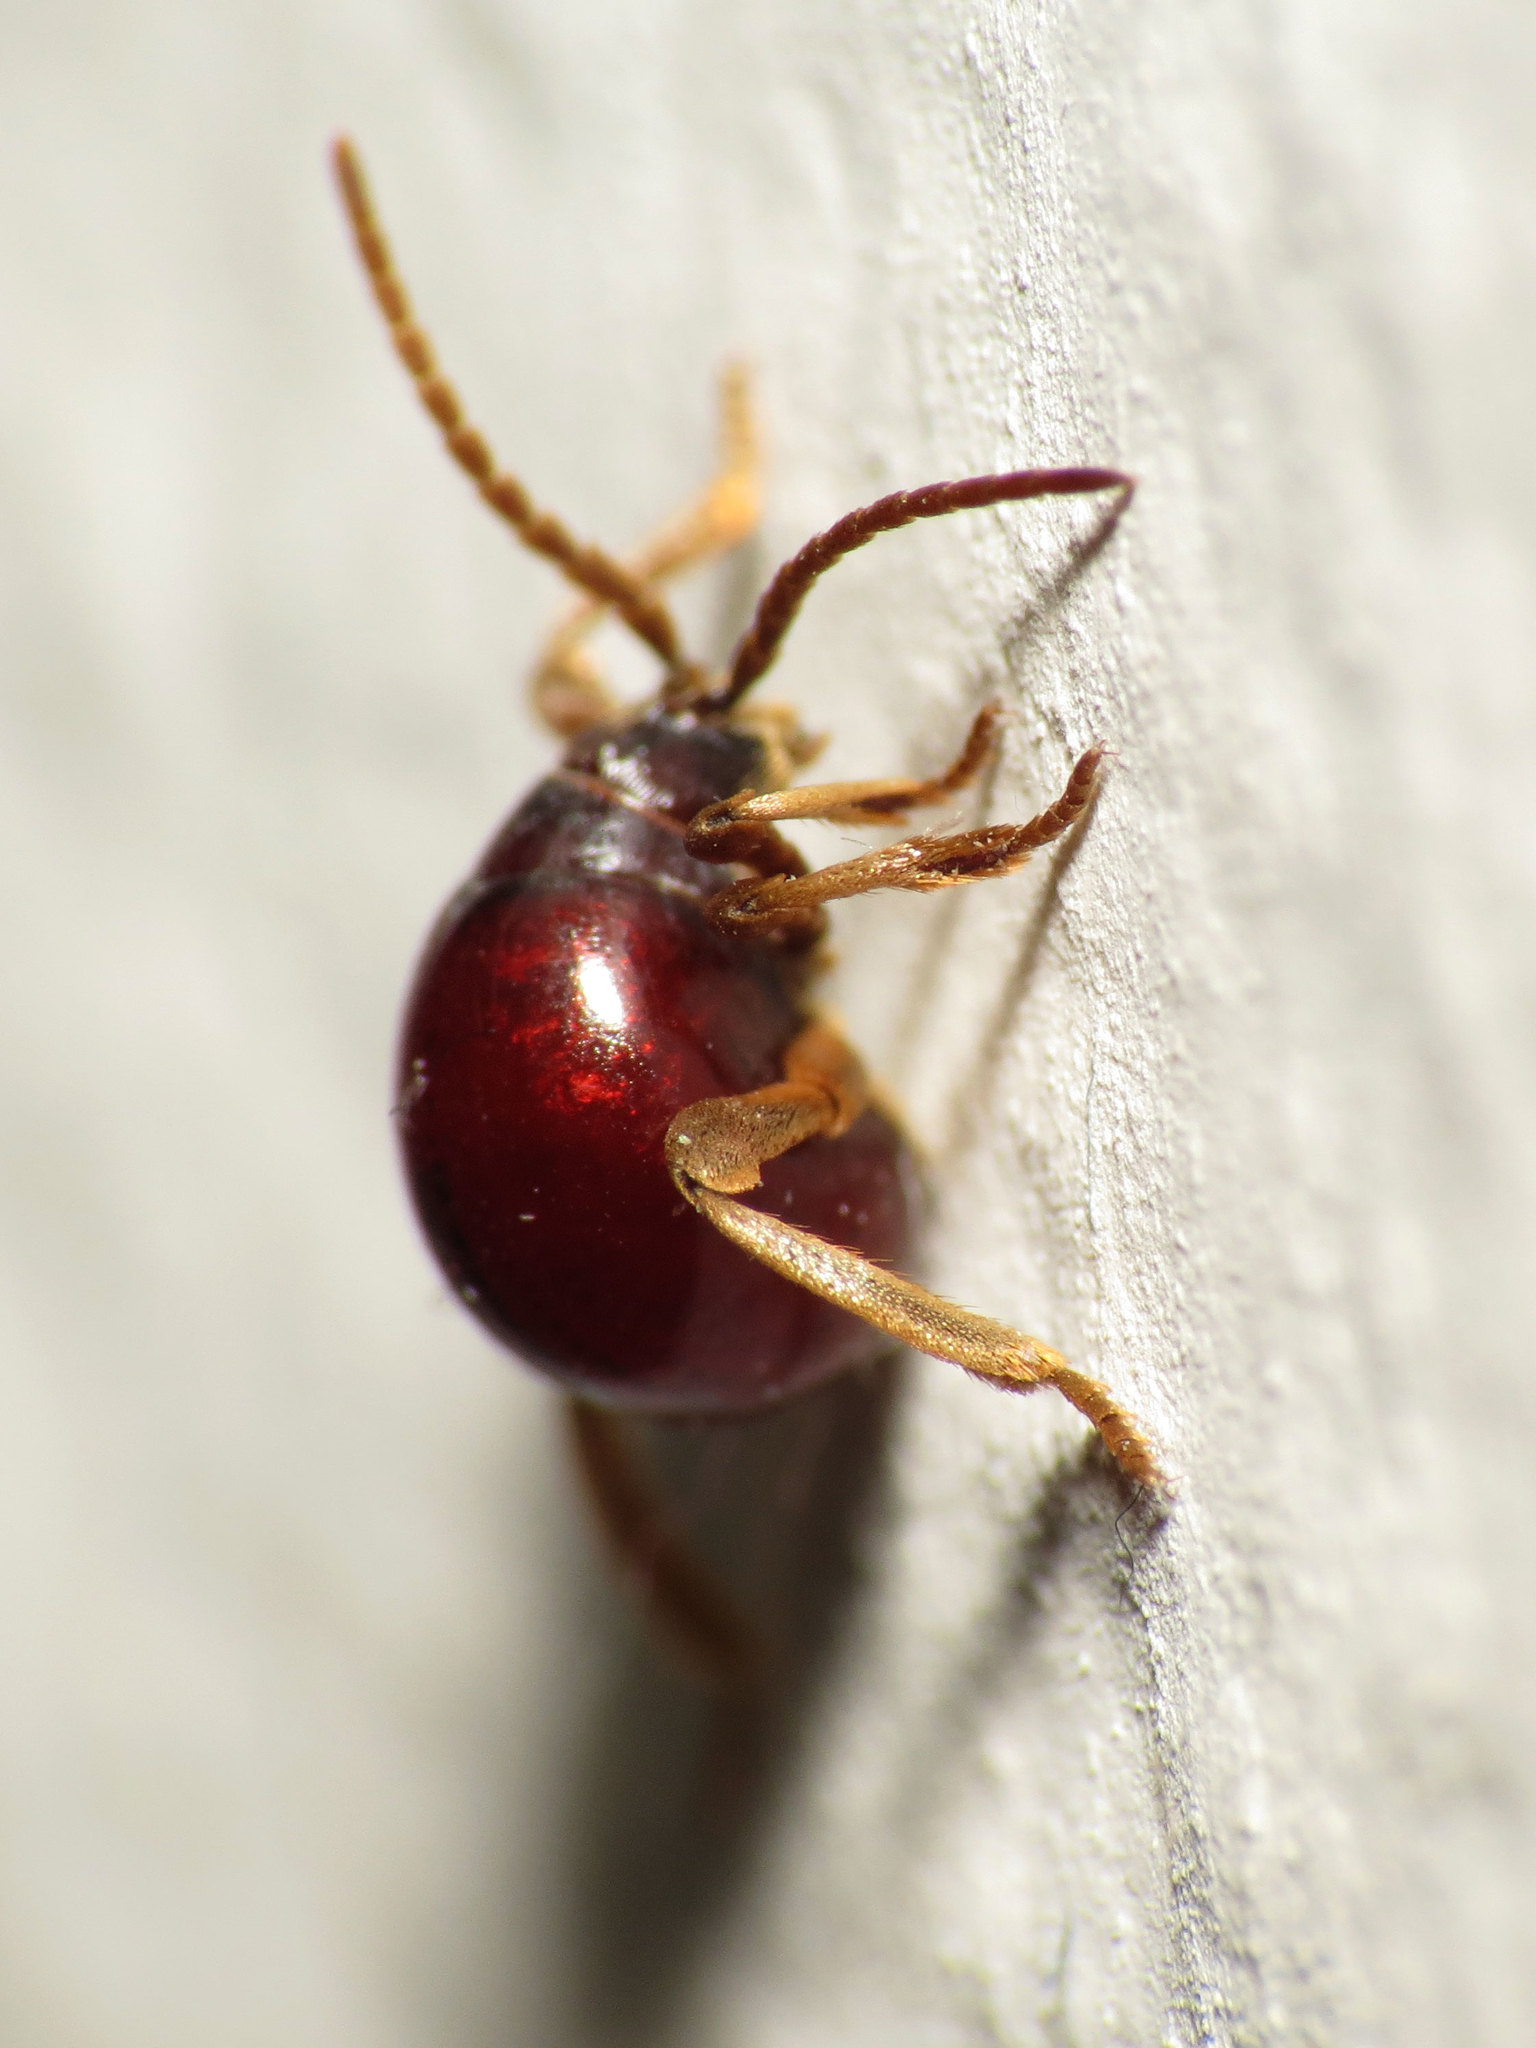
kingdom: Animalia
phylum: Arthropoda
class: Insecta
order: Coleoptera
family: Ptinidae
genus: Gibbium
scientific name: Gibbium aequinoctiale
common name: Smooth spider beetle
